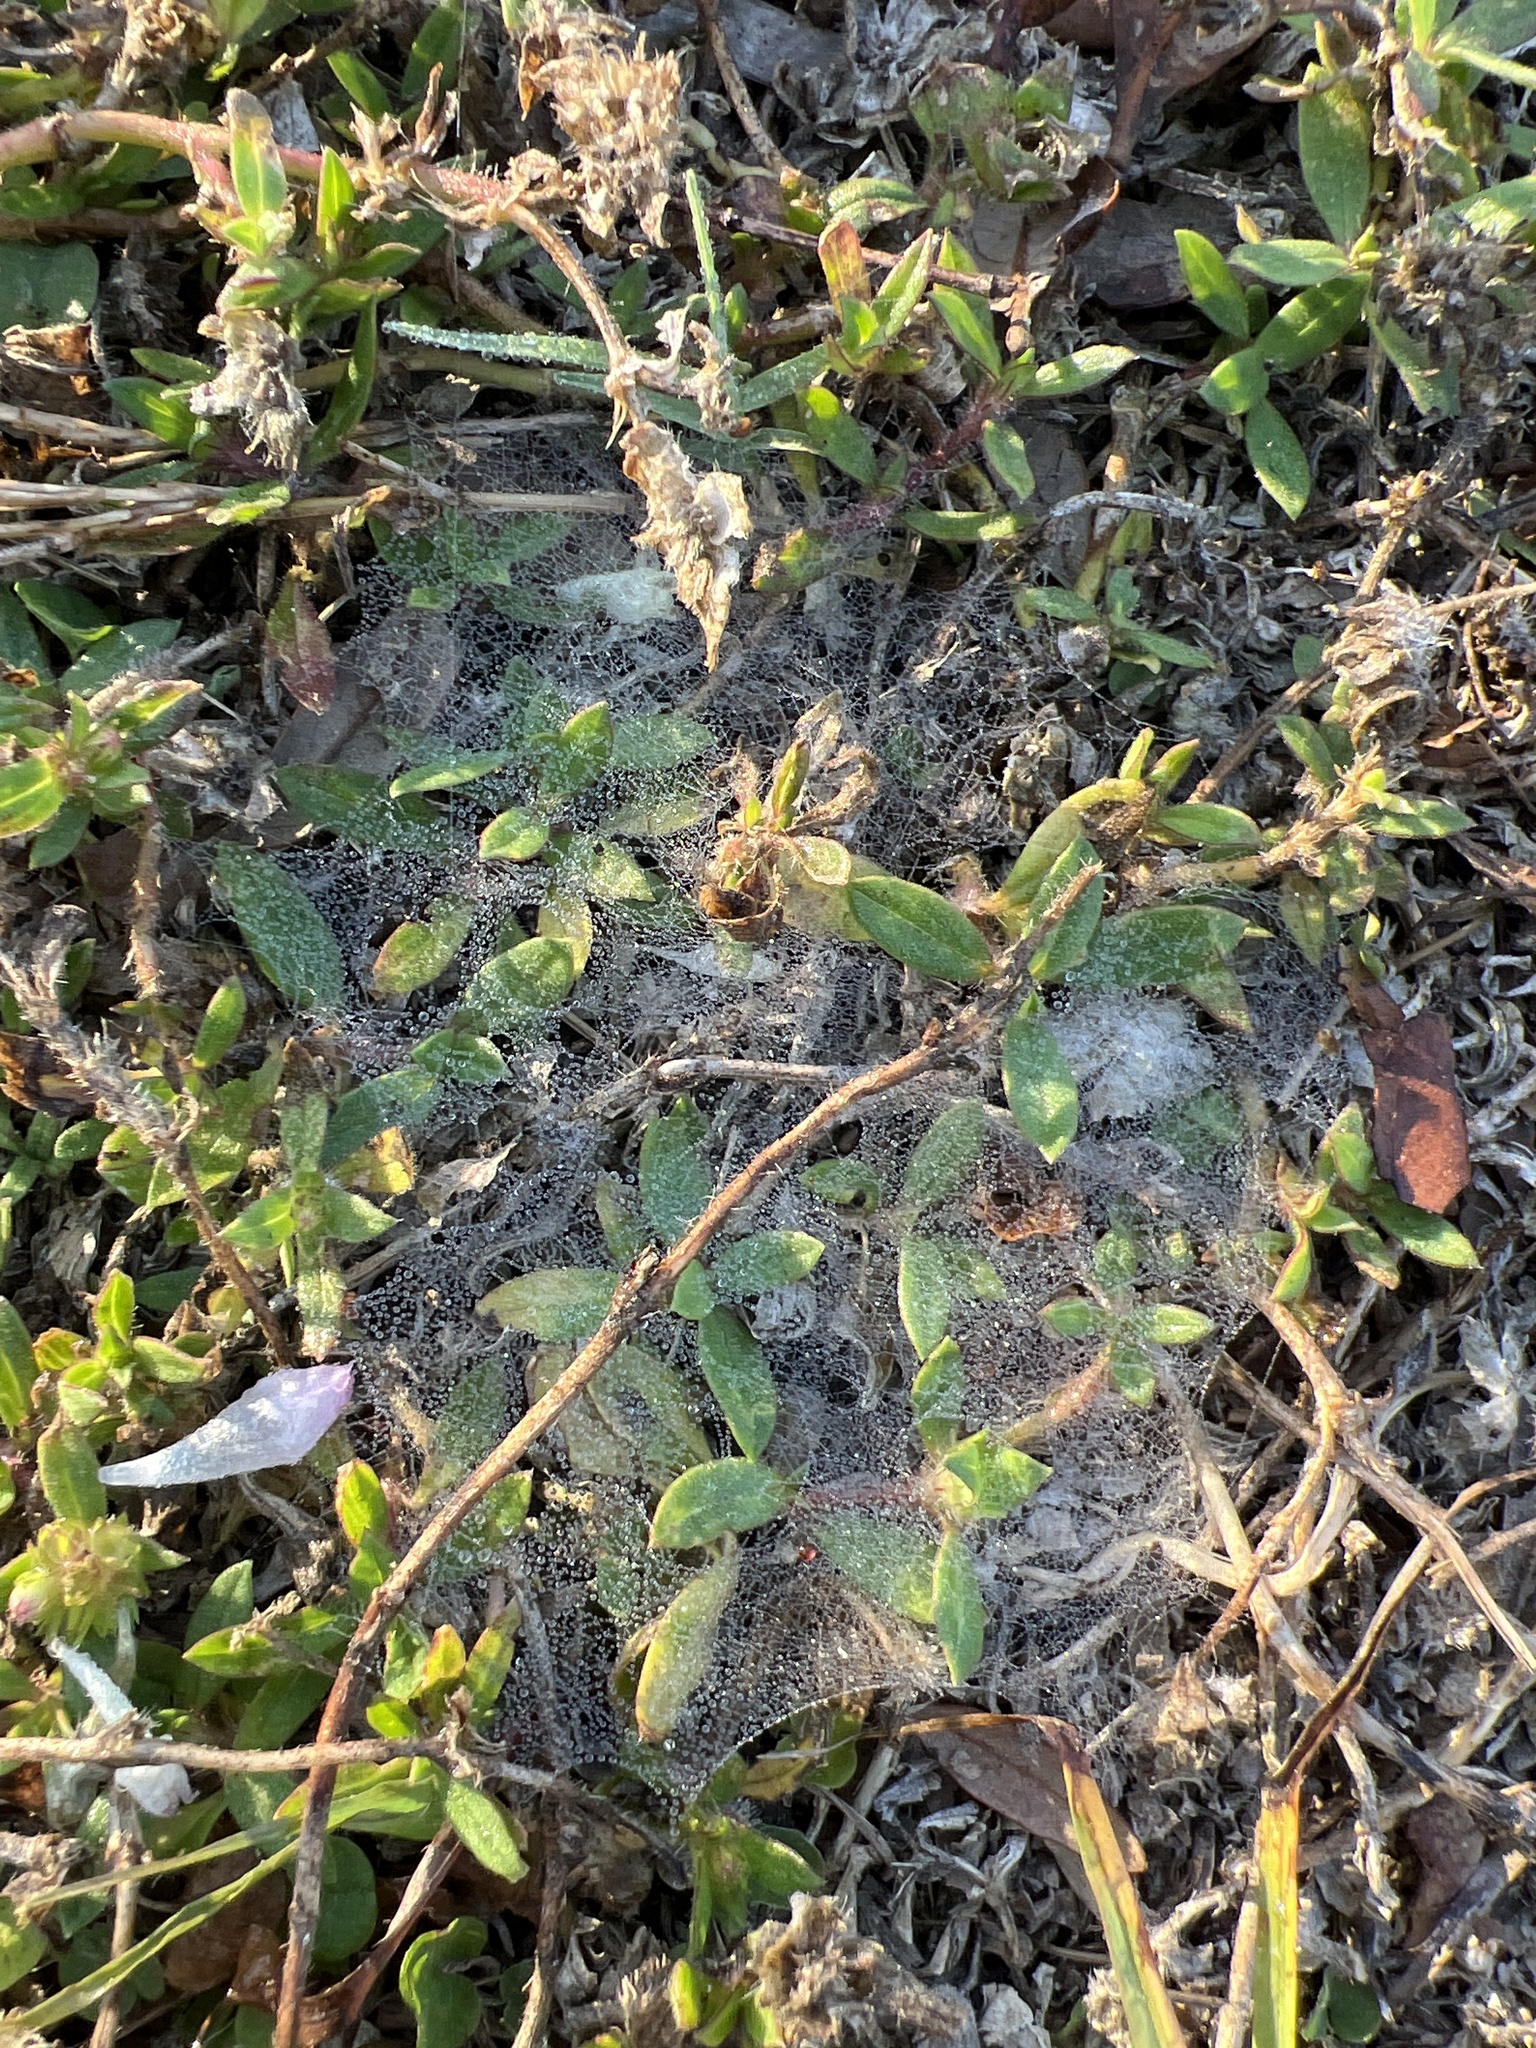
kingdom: Plantae
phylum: Tracheophyta
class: Magnoliopsida
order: Gentianales
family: Rubiaceae
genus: Richardia
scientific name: Richardia grandiflora
